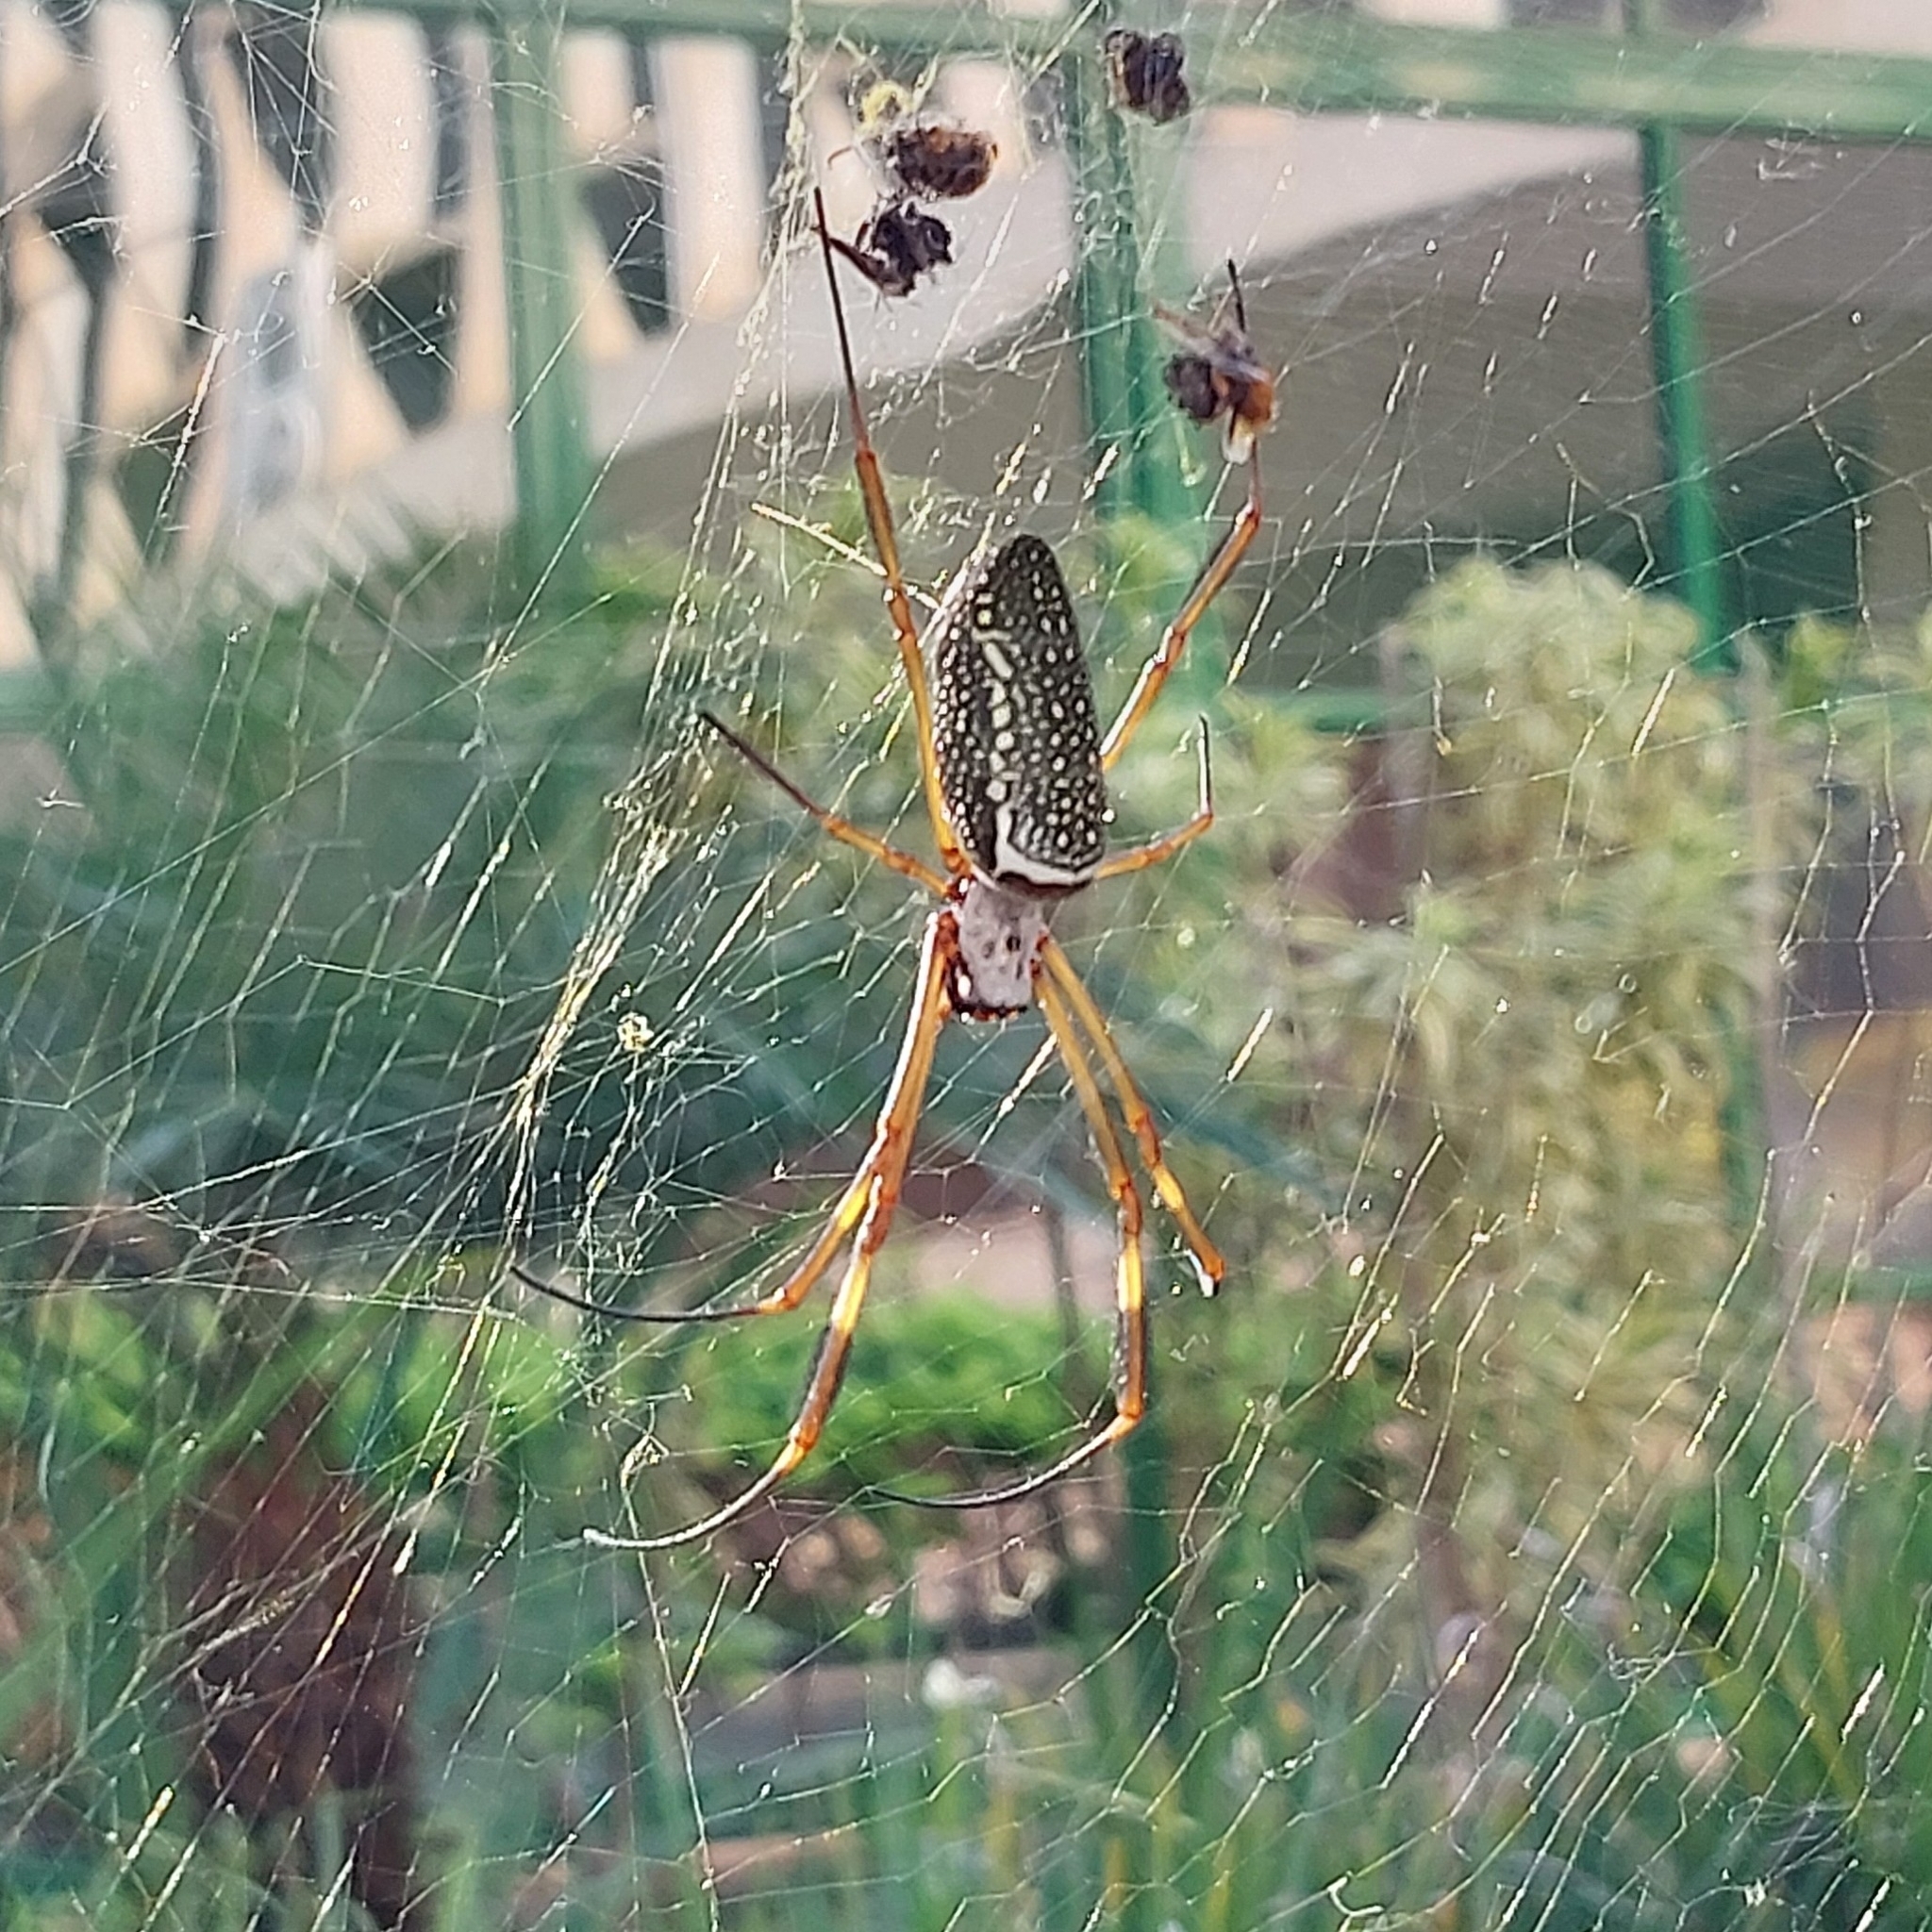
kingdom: Animalia
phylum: Arthropoda
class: Arachnida
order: Araneae
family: Araneidae
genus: Trichonephila
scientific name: Trichonephila clavipes
